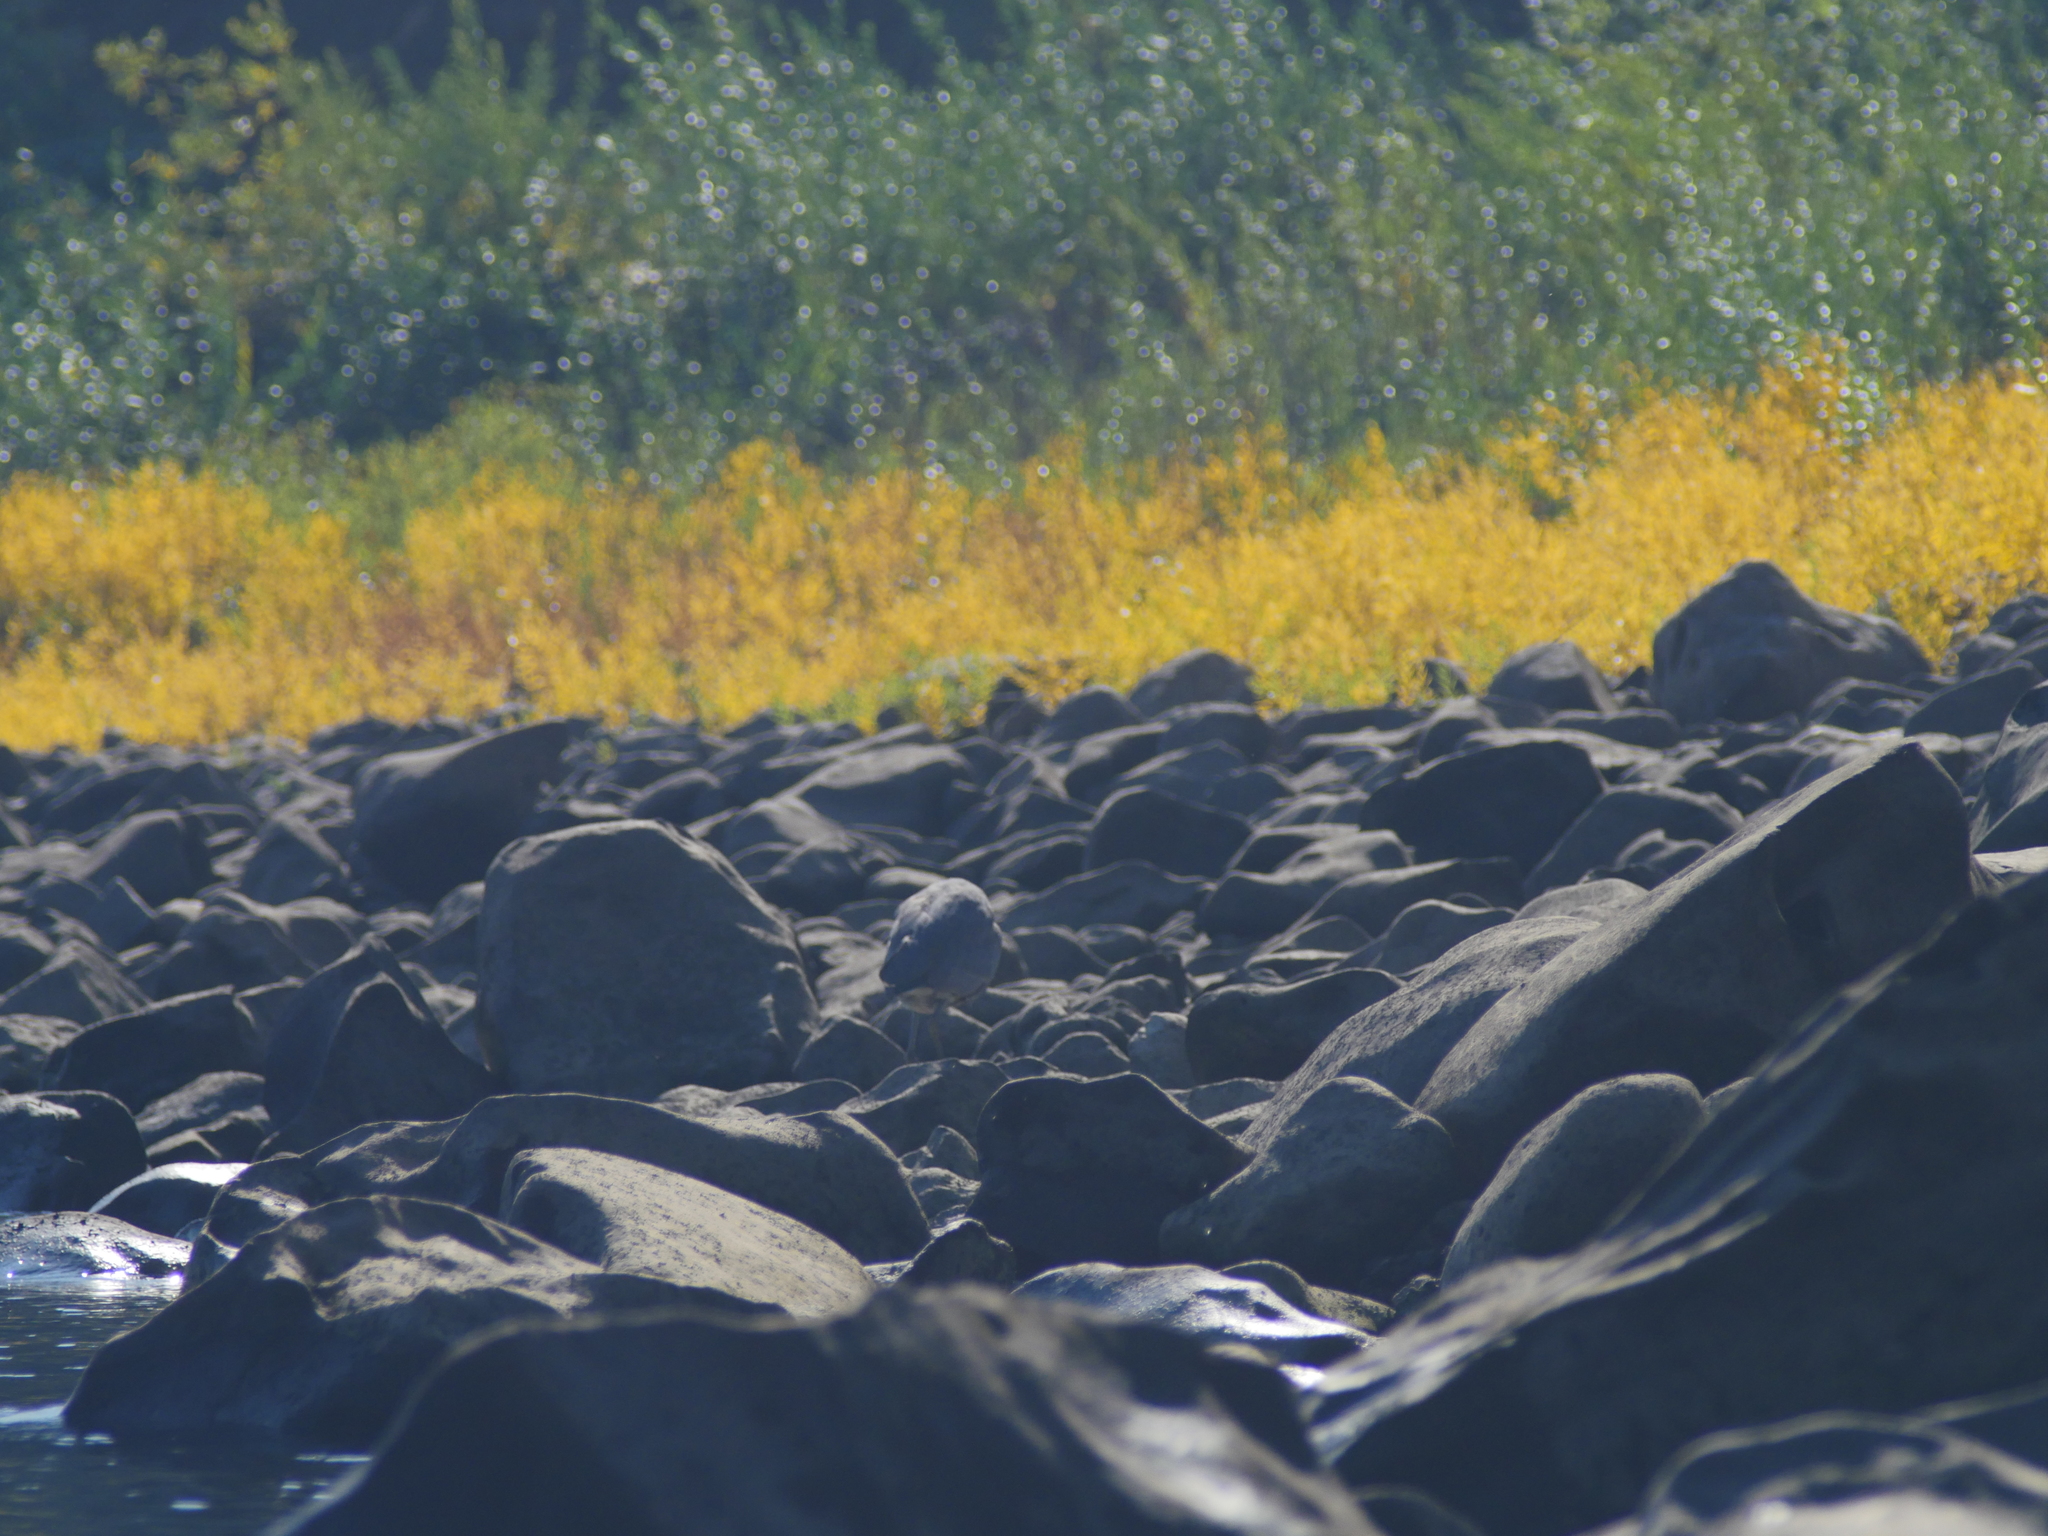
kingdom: Animalia
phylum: Chordata
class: Aves
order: Pelecaniformes
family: Ardeidae
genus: Ardea
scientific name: Ardea herodias
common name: Great blue heron
